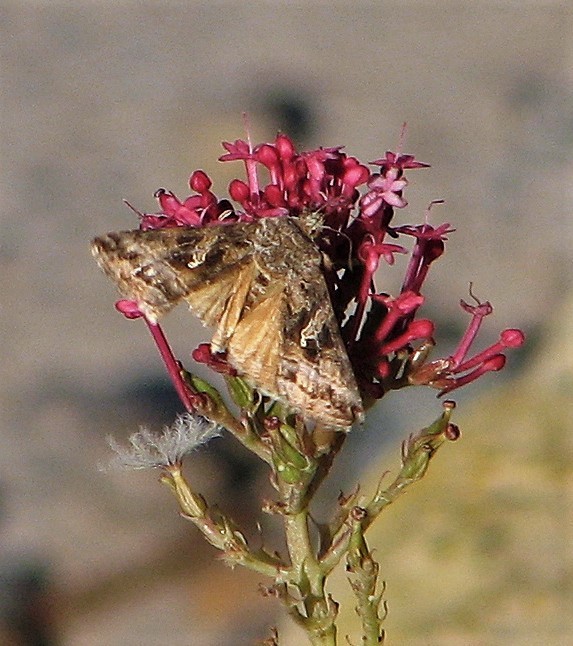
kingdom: Animalia
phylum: Arthropoda
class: Insecta
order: Lepidoptera
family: Noctuidae
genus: Rachiplusia
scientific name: Rachiplusia nu
